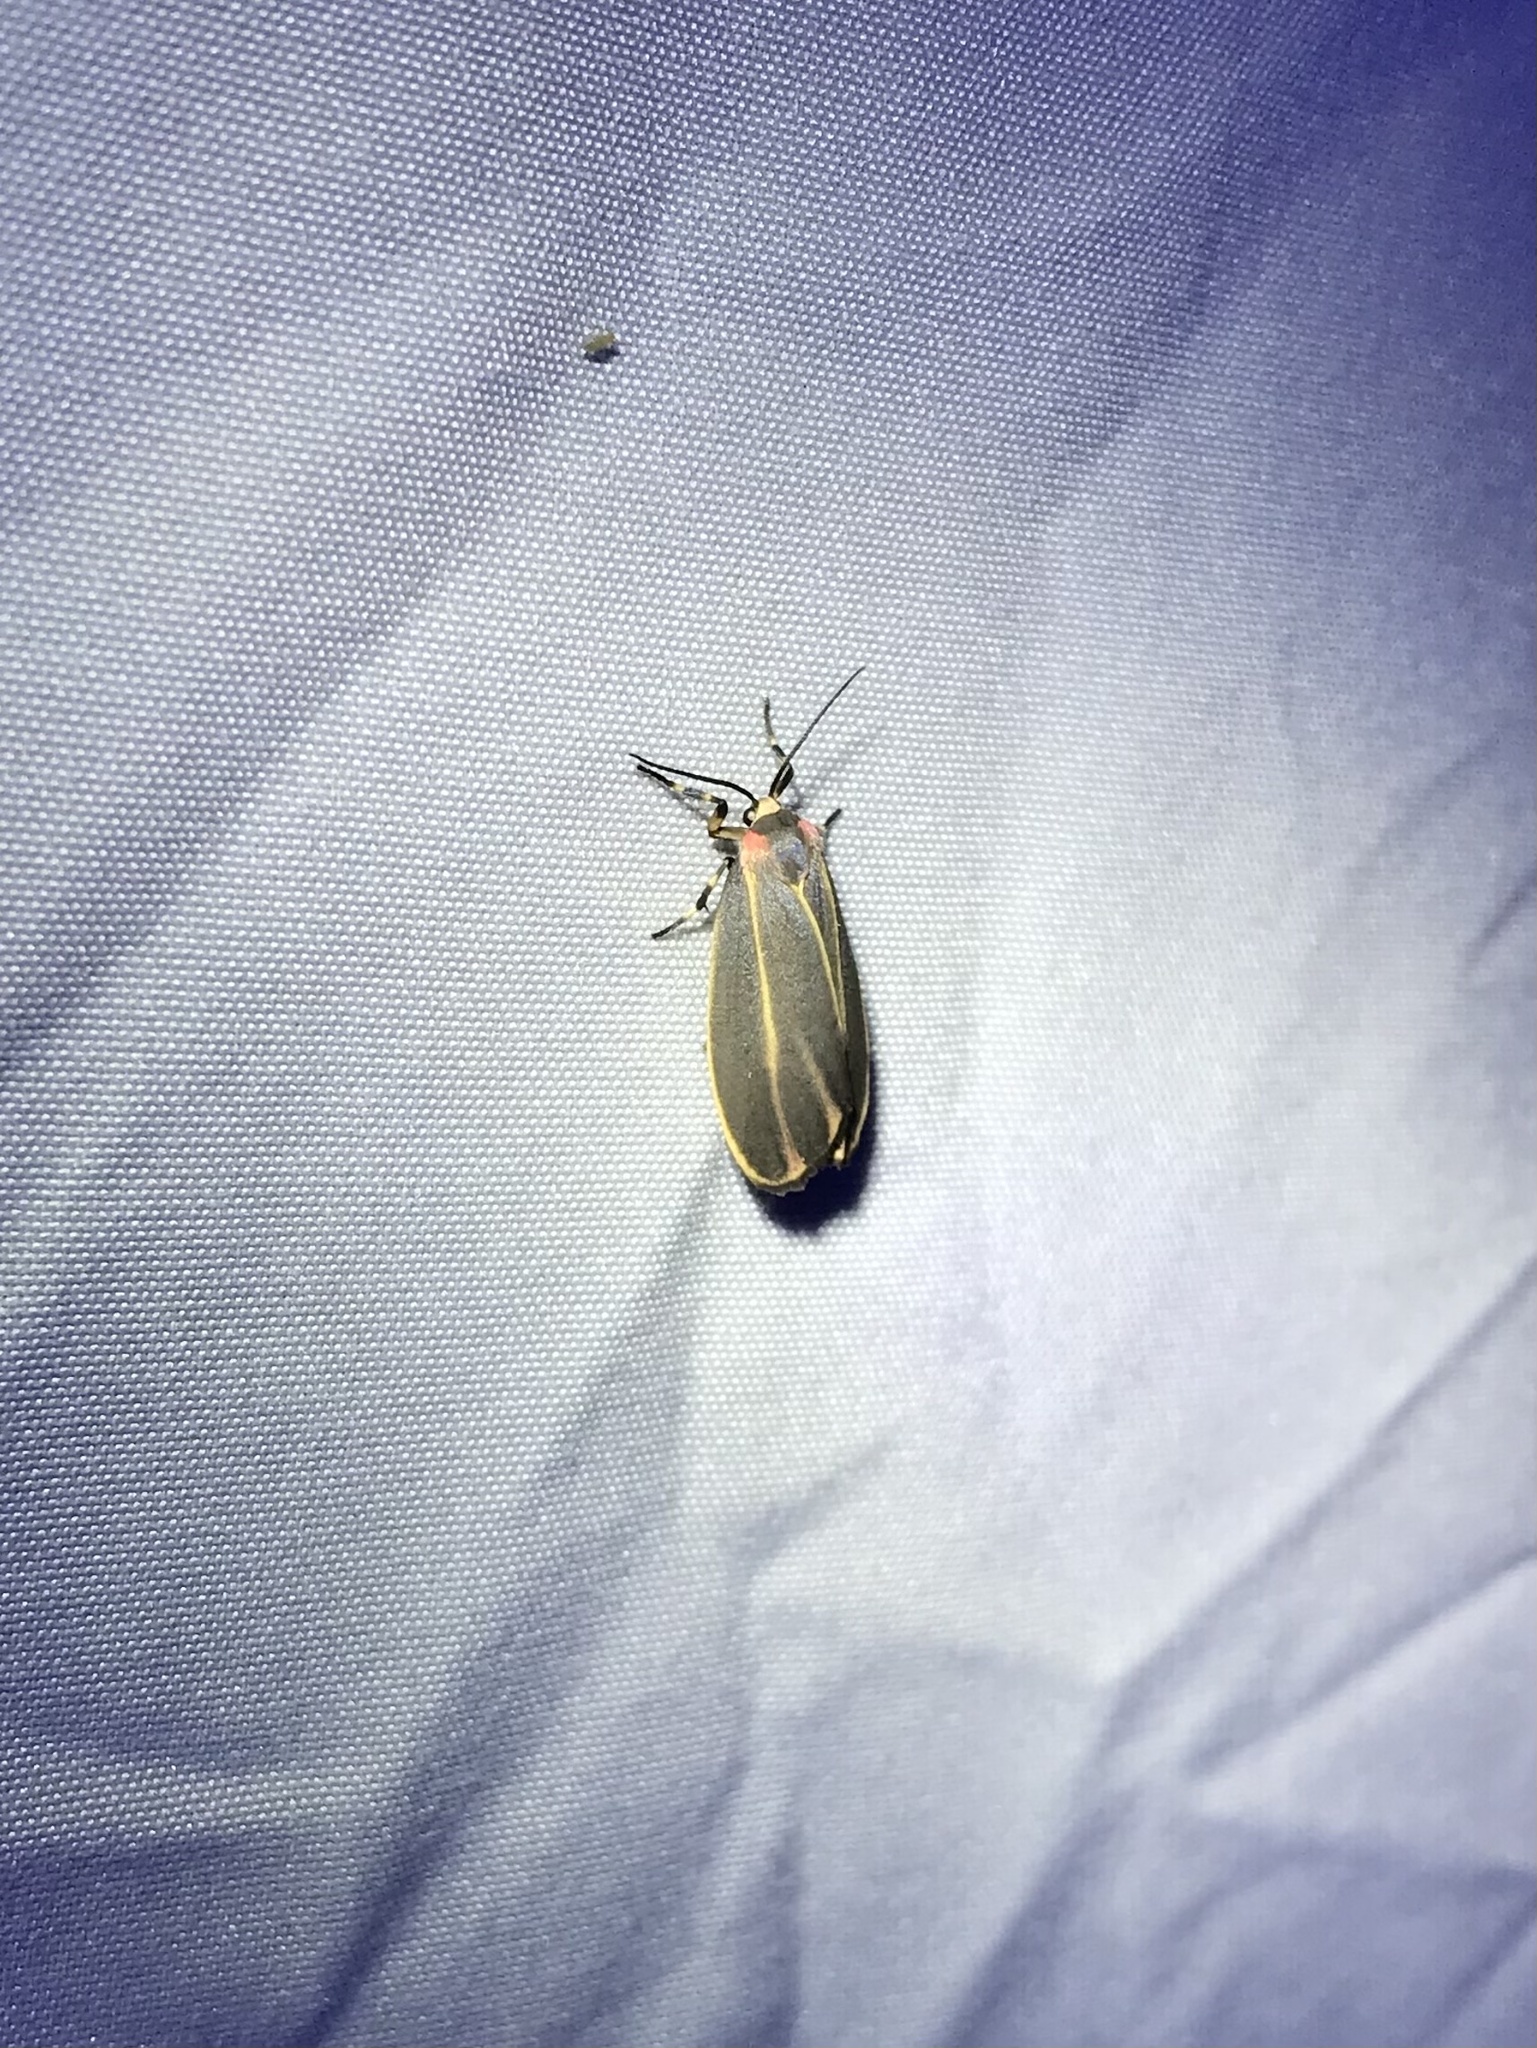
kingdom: Animalia
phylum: Arthropoda
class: Insecta
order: Lepidoptera
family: Erebidae
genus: Hypoprepia
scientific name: Hypoprepia fucosa
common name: Painted lichen moth
